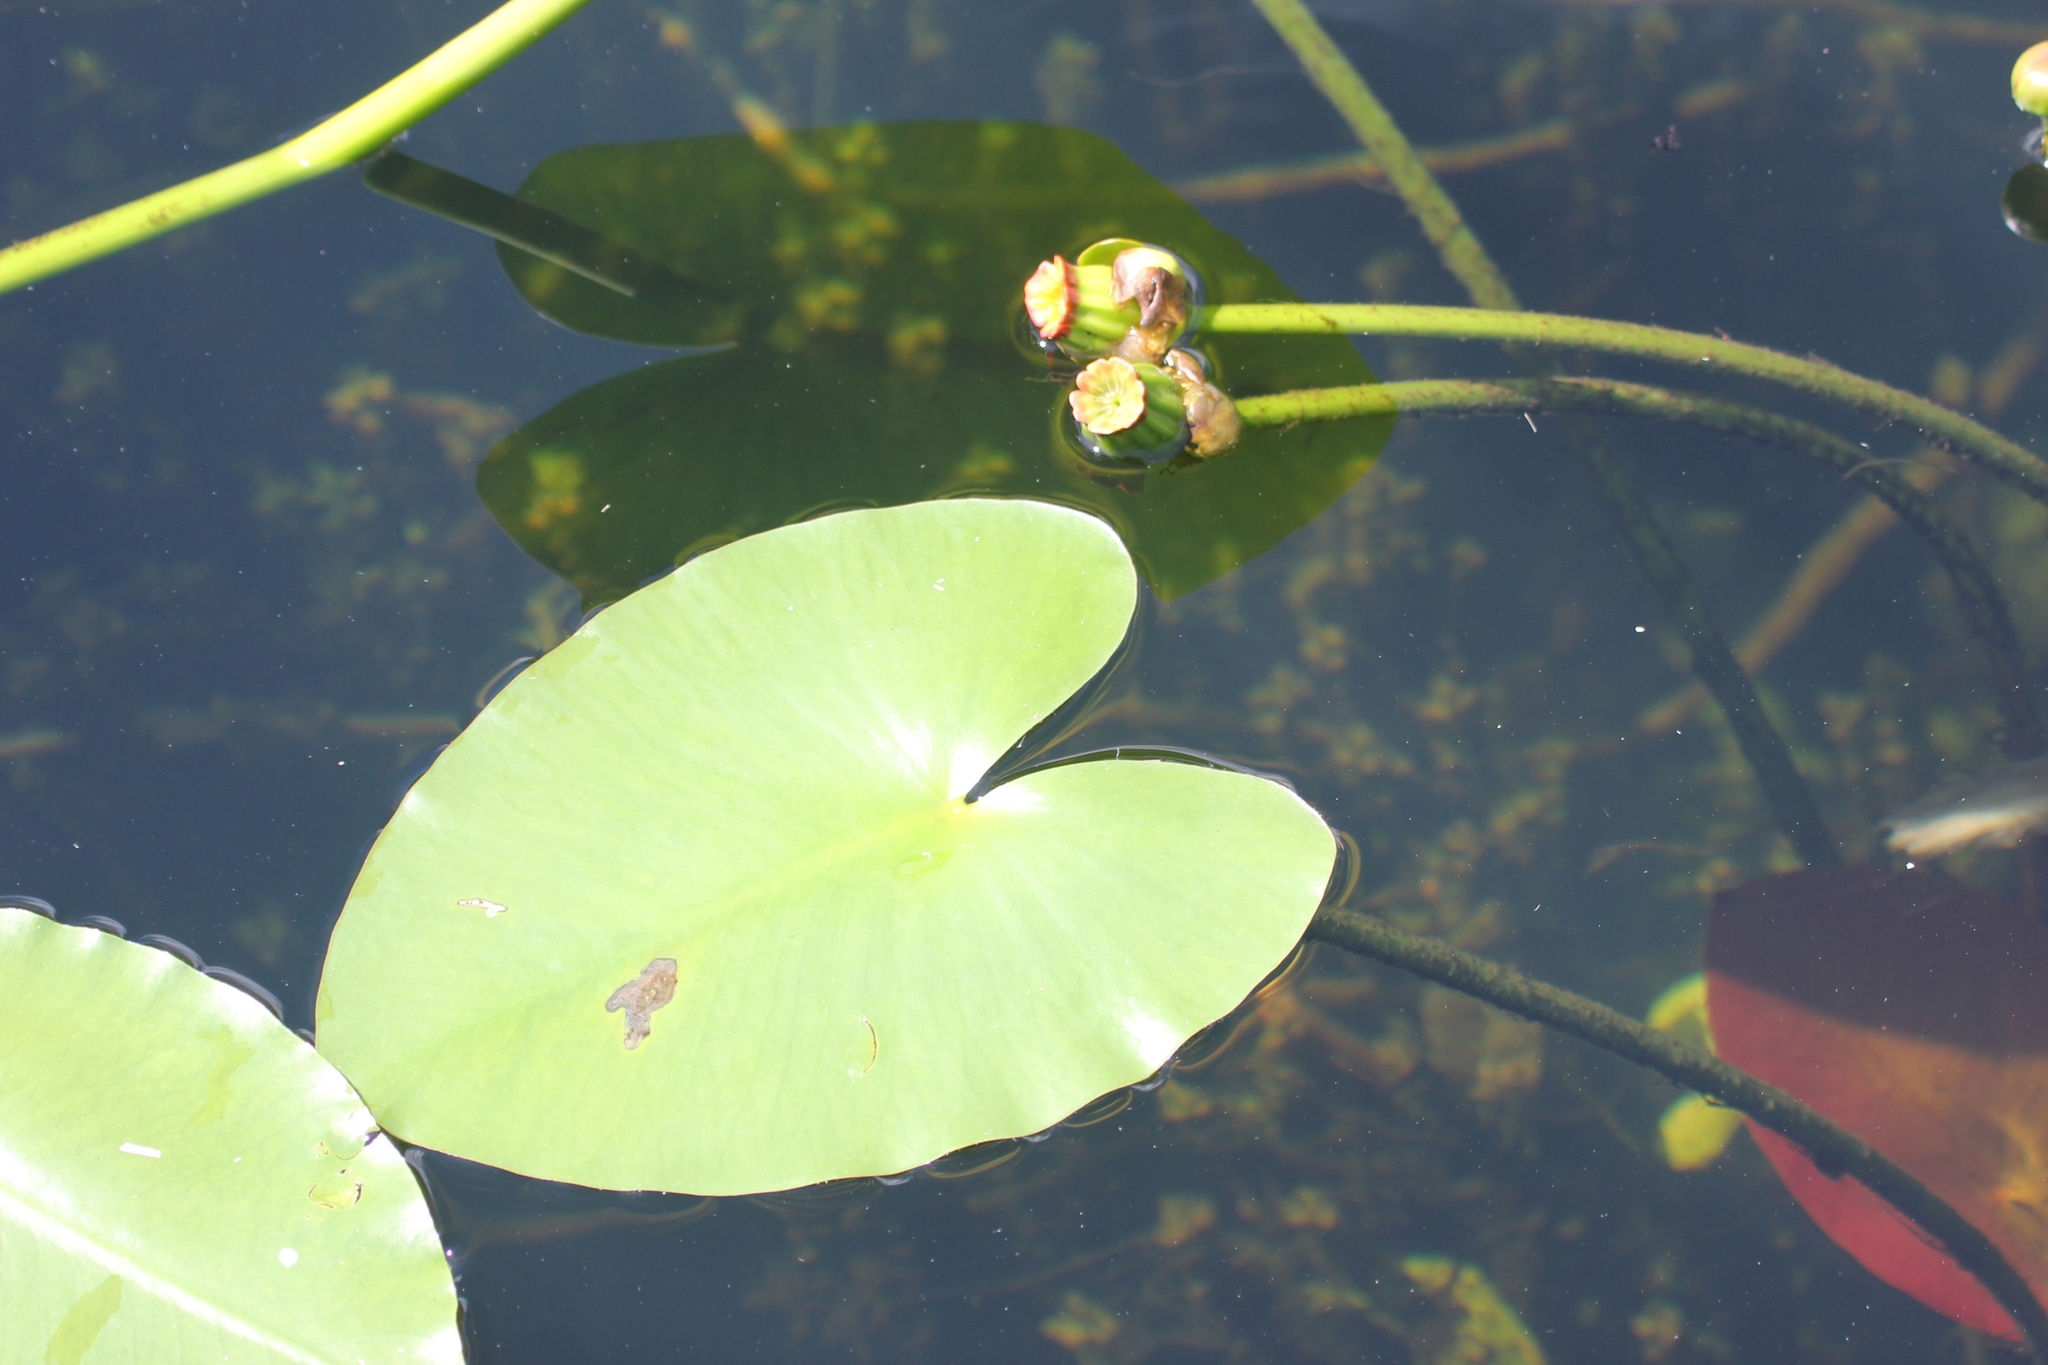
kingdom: Plantae
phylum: Tracheophyta
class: Magnoliopsida
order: Nymphaeales
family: Nymphaeaceae
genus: Nuphar
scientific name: Nuphar advena
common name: Spatter-dock
